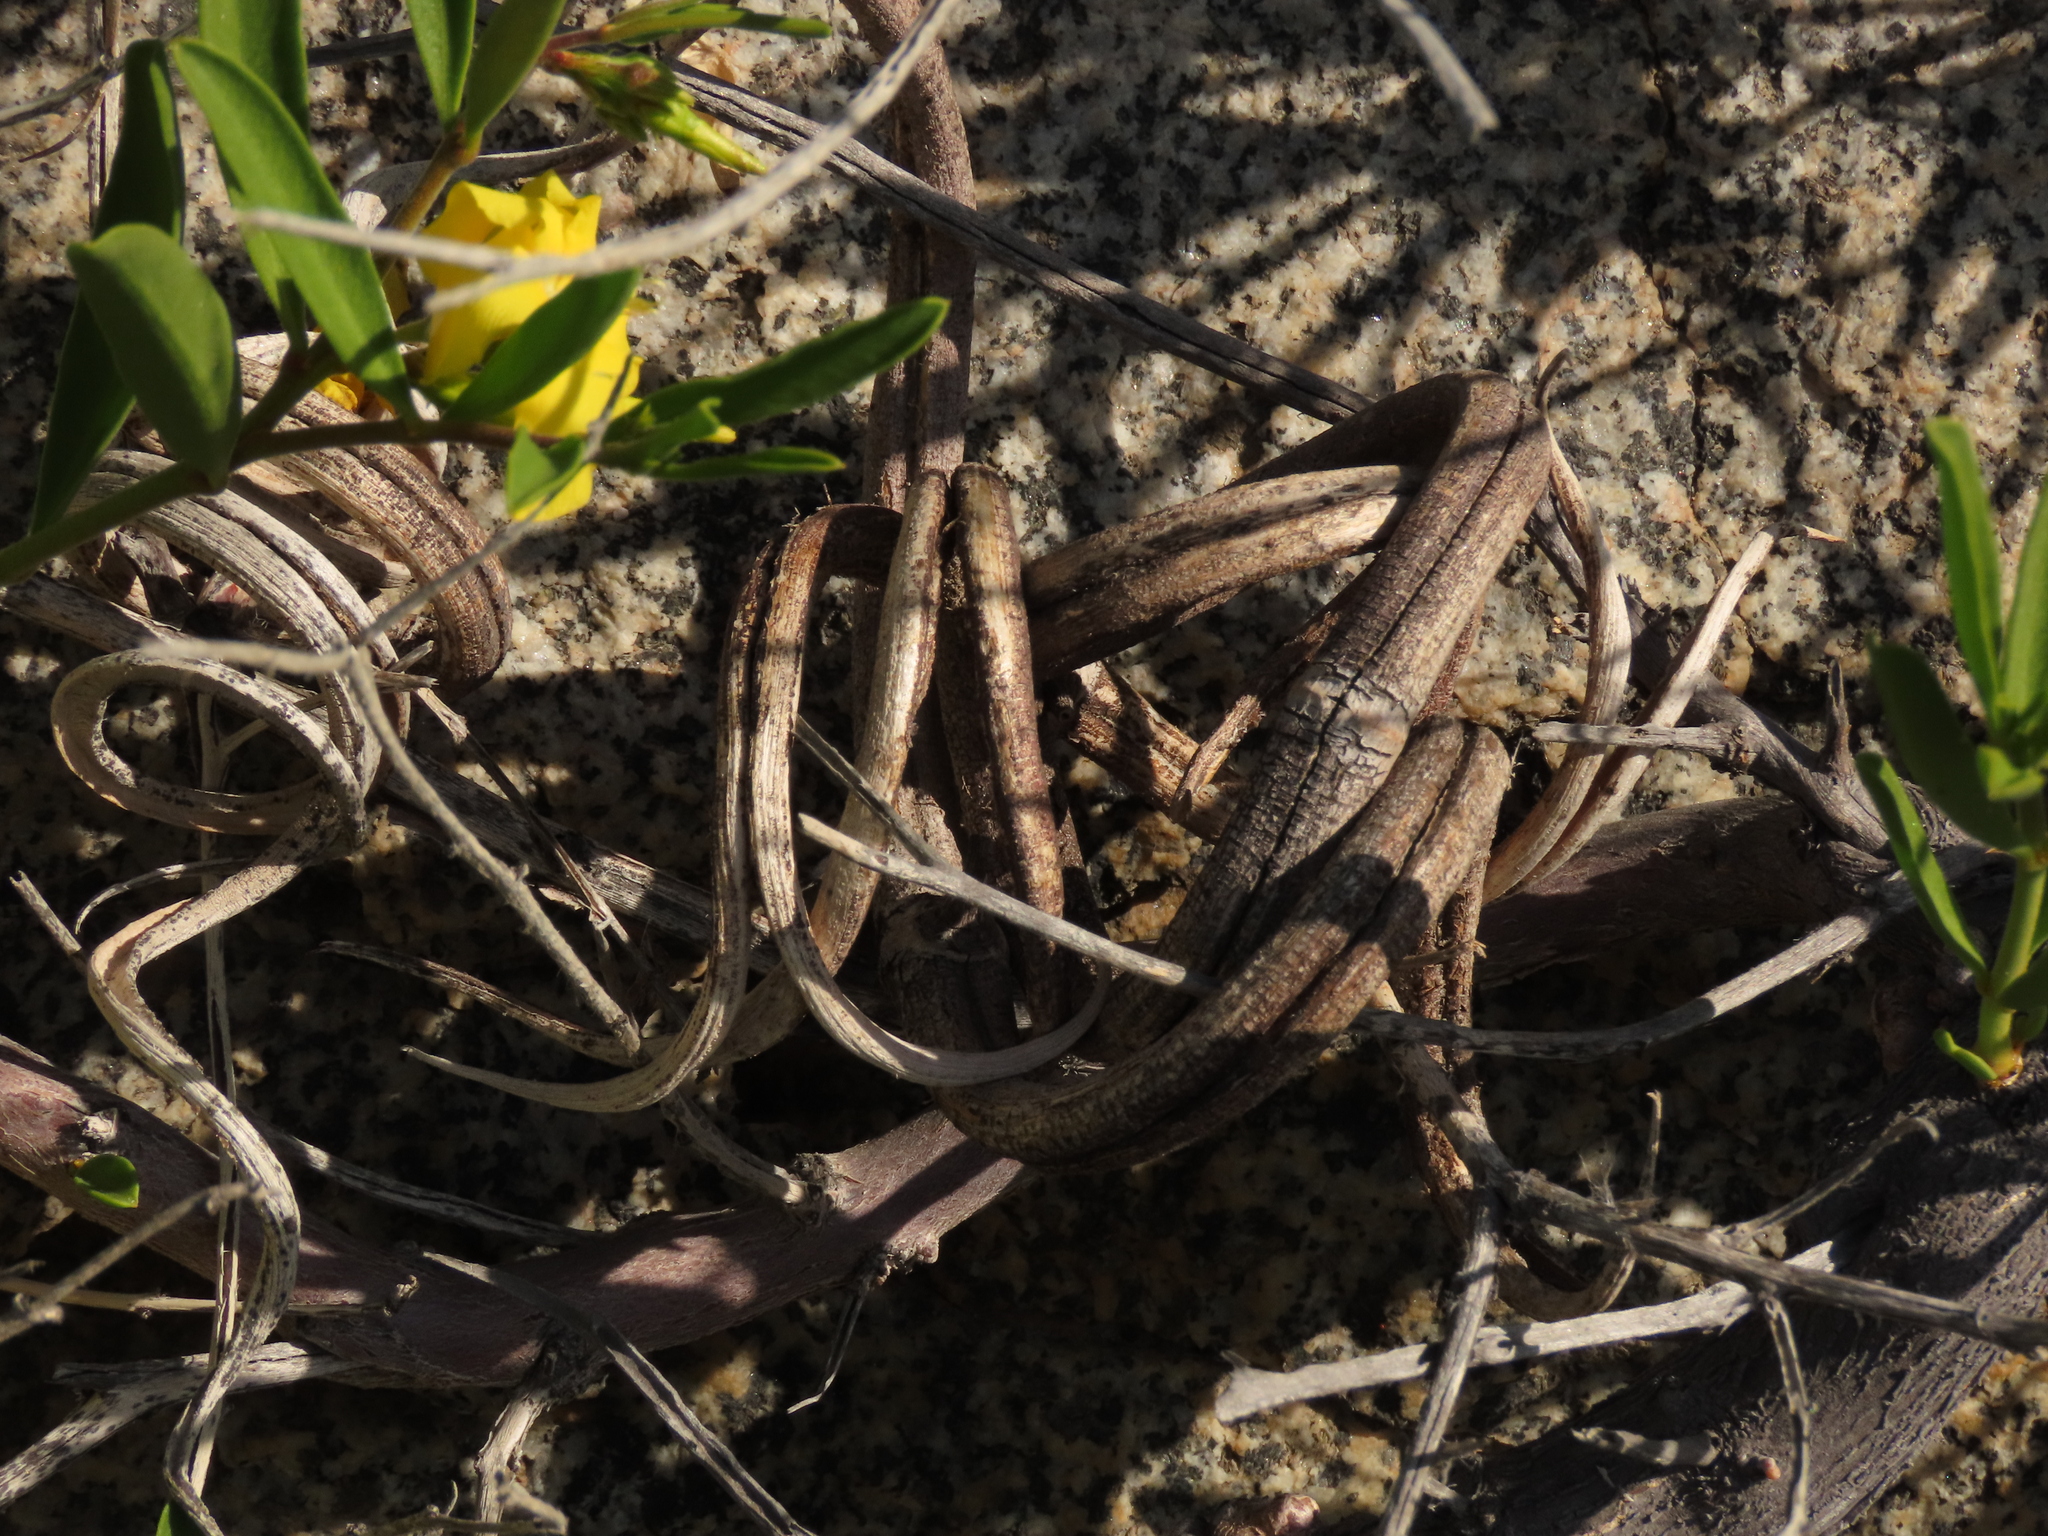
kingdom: Plantae
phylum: Tracheophyta
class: Magnoliopsida
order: Gentianales
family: Apocynaceae
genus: Skytanthus
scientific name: Skytanthus acutus
